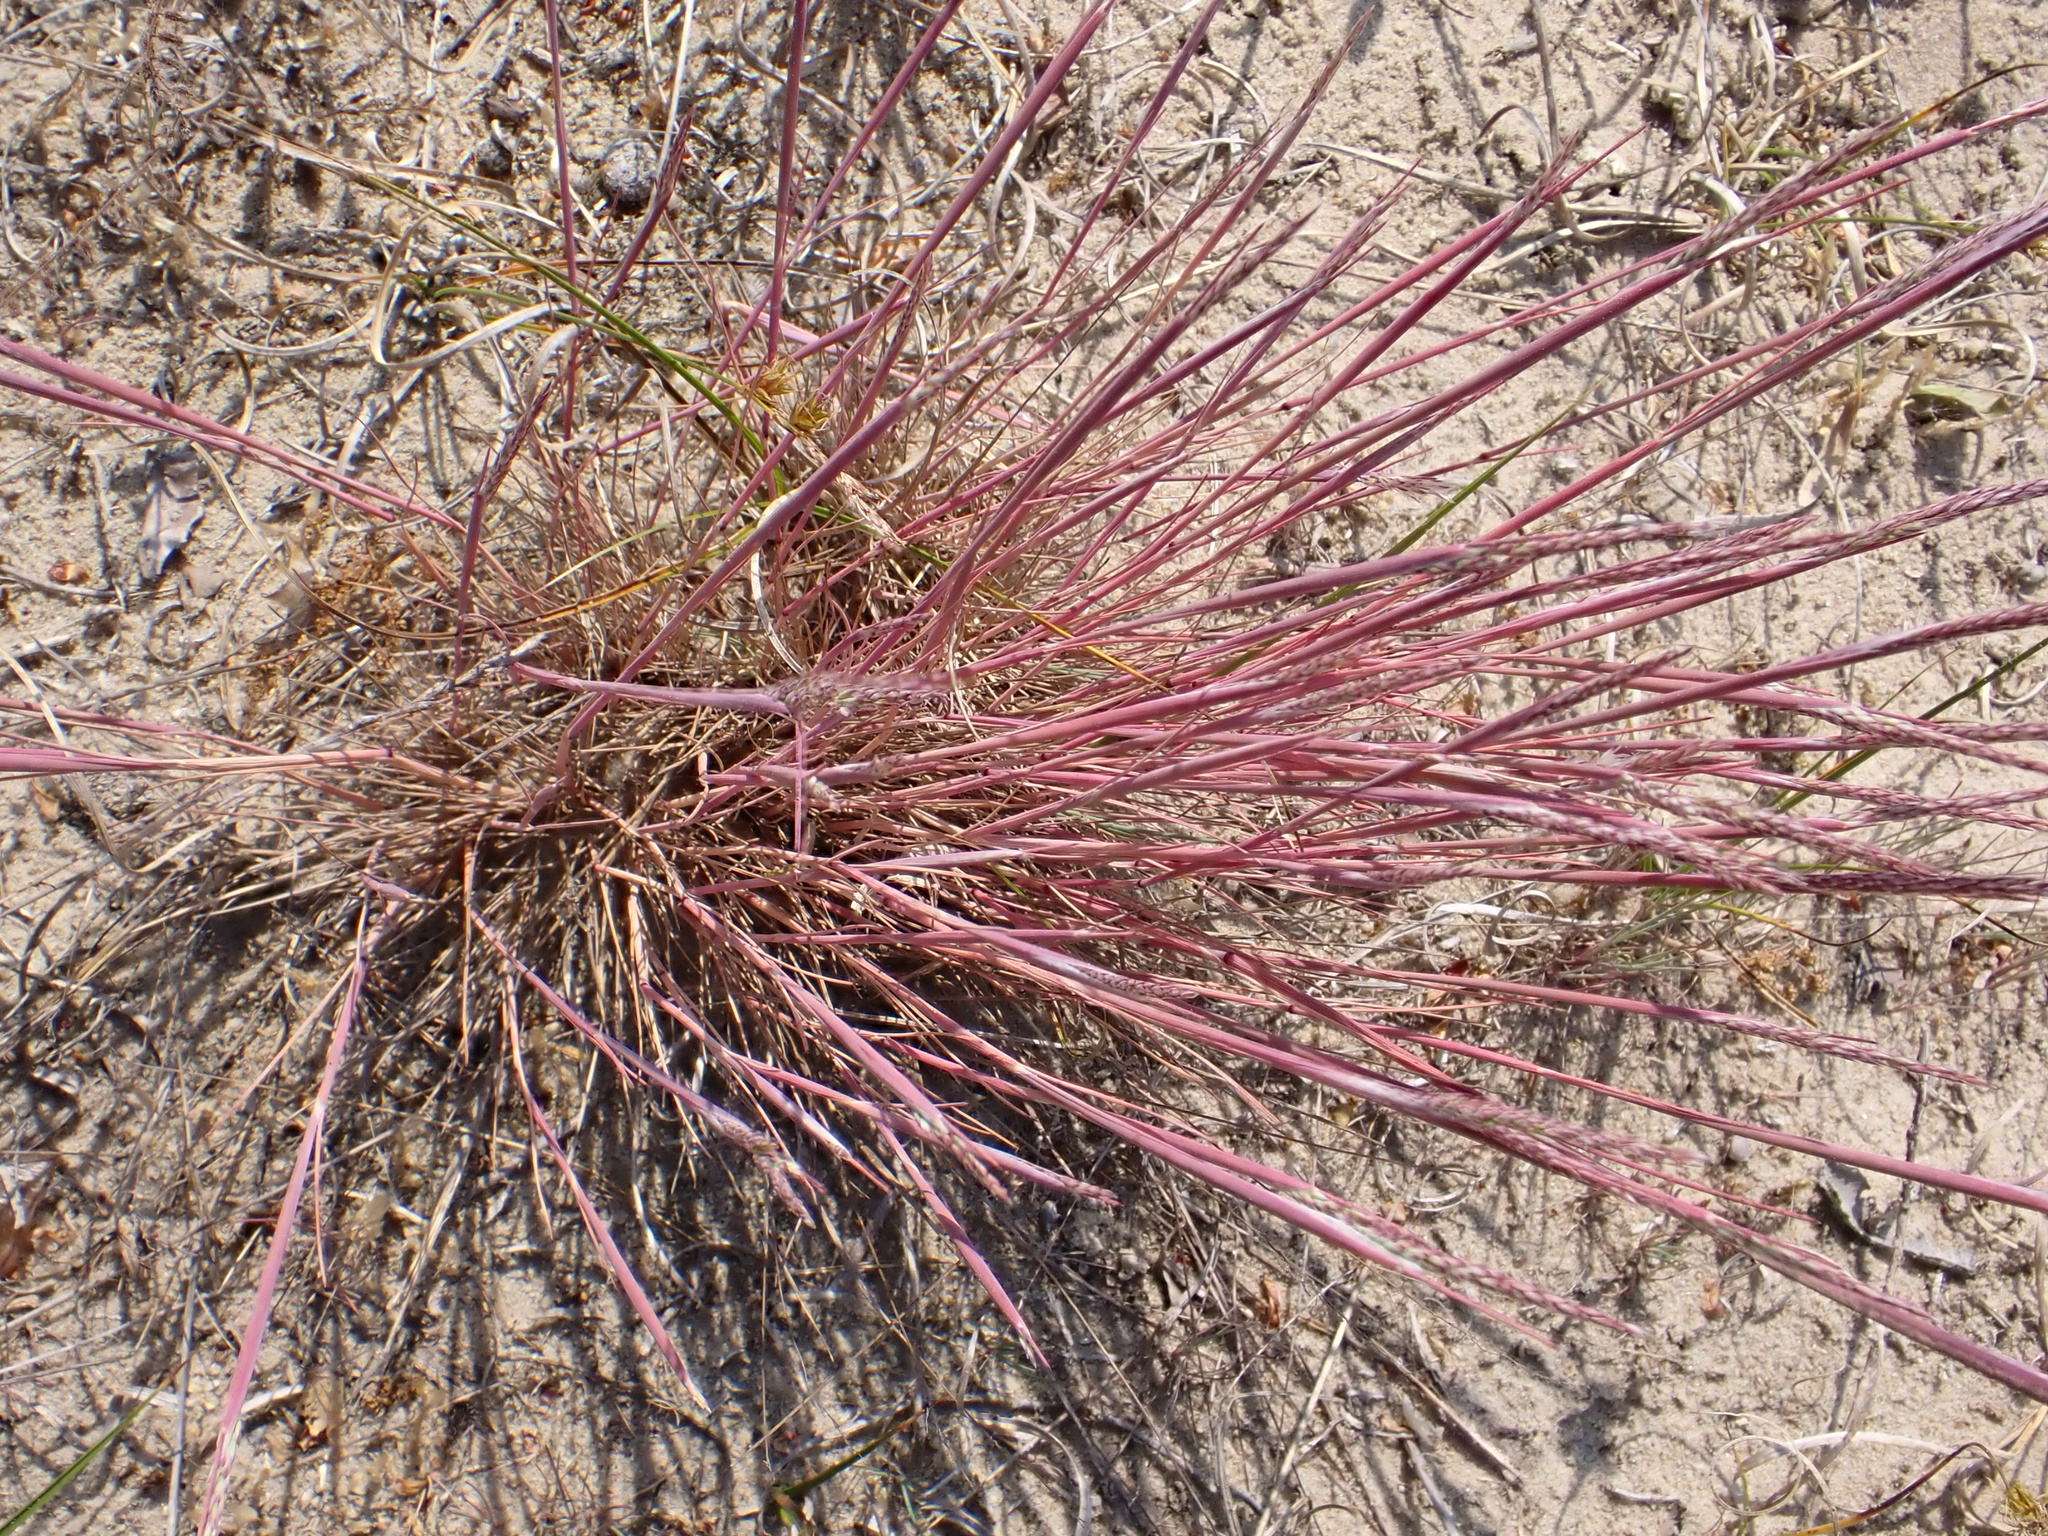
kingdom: Plantae
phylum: Tracheophyta
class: Liliopsida
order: Poales
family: Poaceae
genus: Corynephorus
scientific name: Corynephorus canescens
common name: Grey hair-grass
